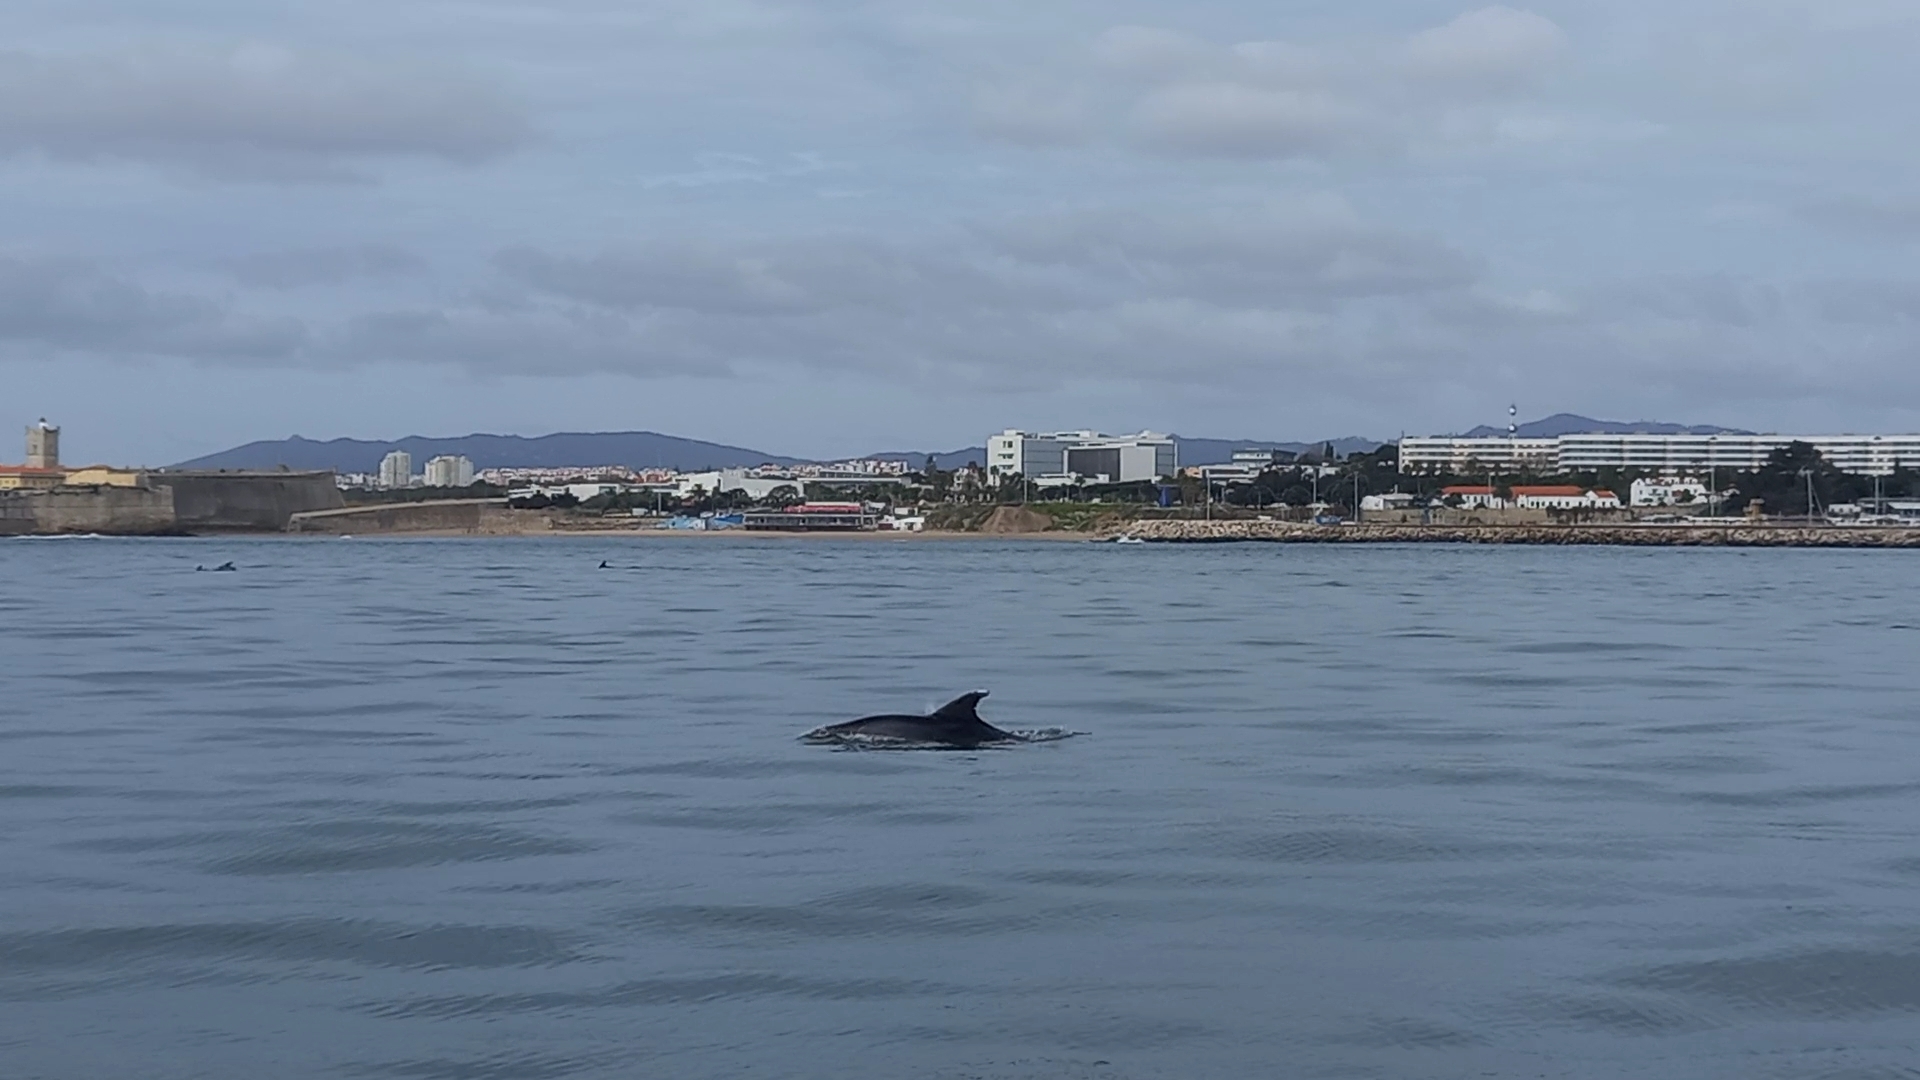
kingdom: Animalia
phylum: Chordata
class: Mammalia
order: Cetacea
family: Delphinidae
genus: Tursiops
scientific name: Tursiops truncatus
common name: Bottlenose dolphin
